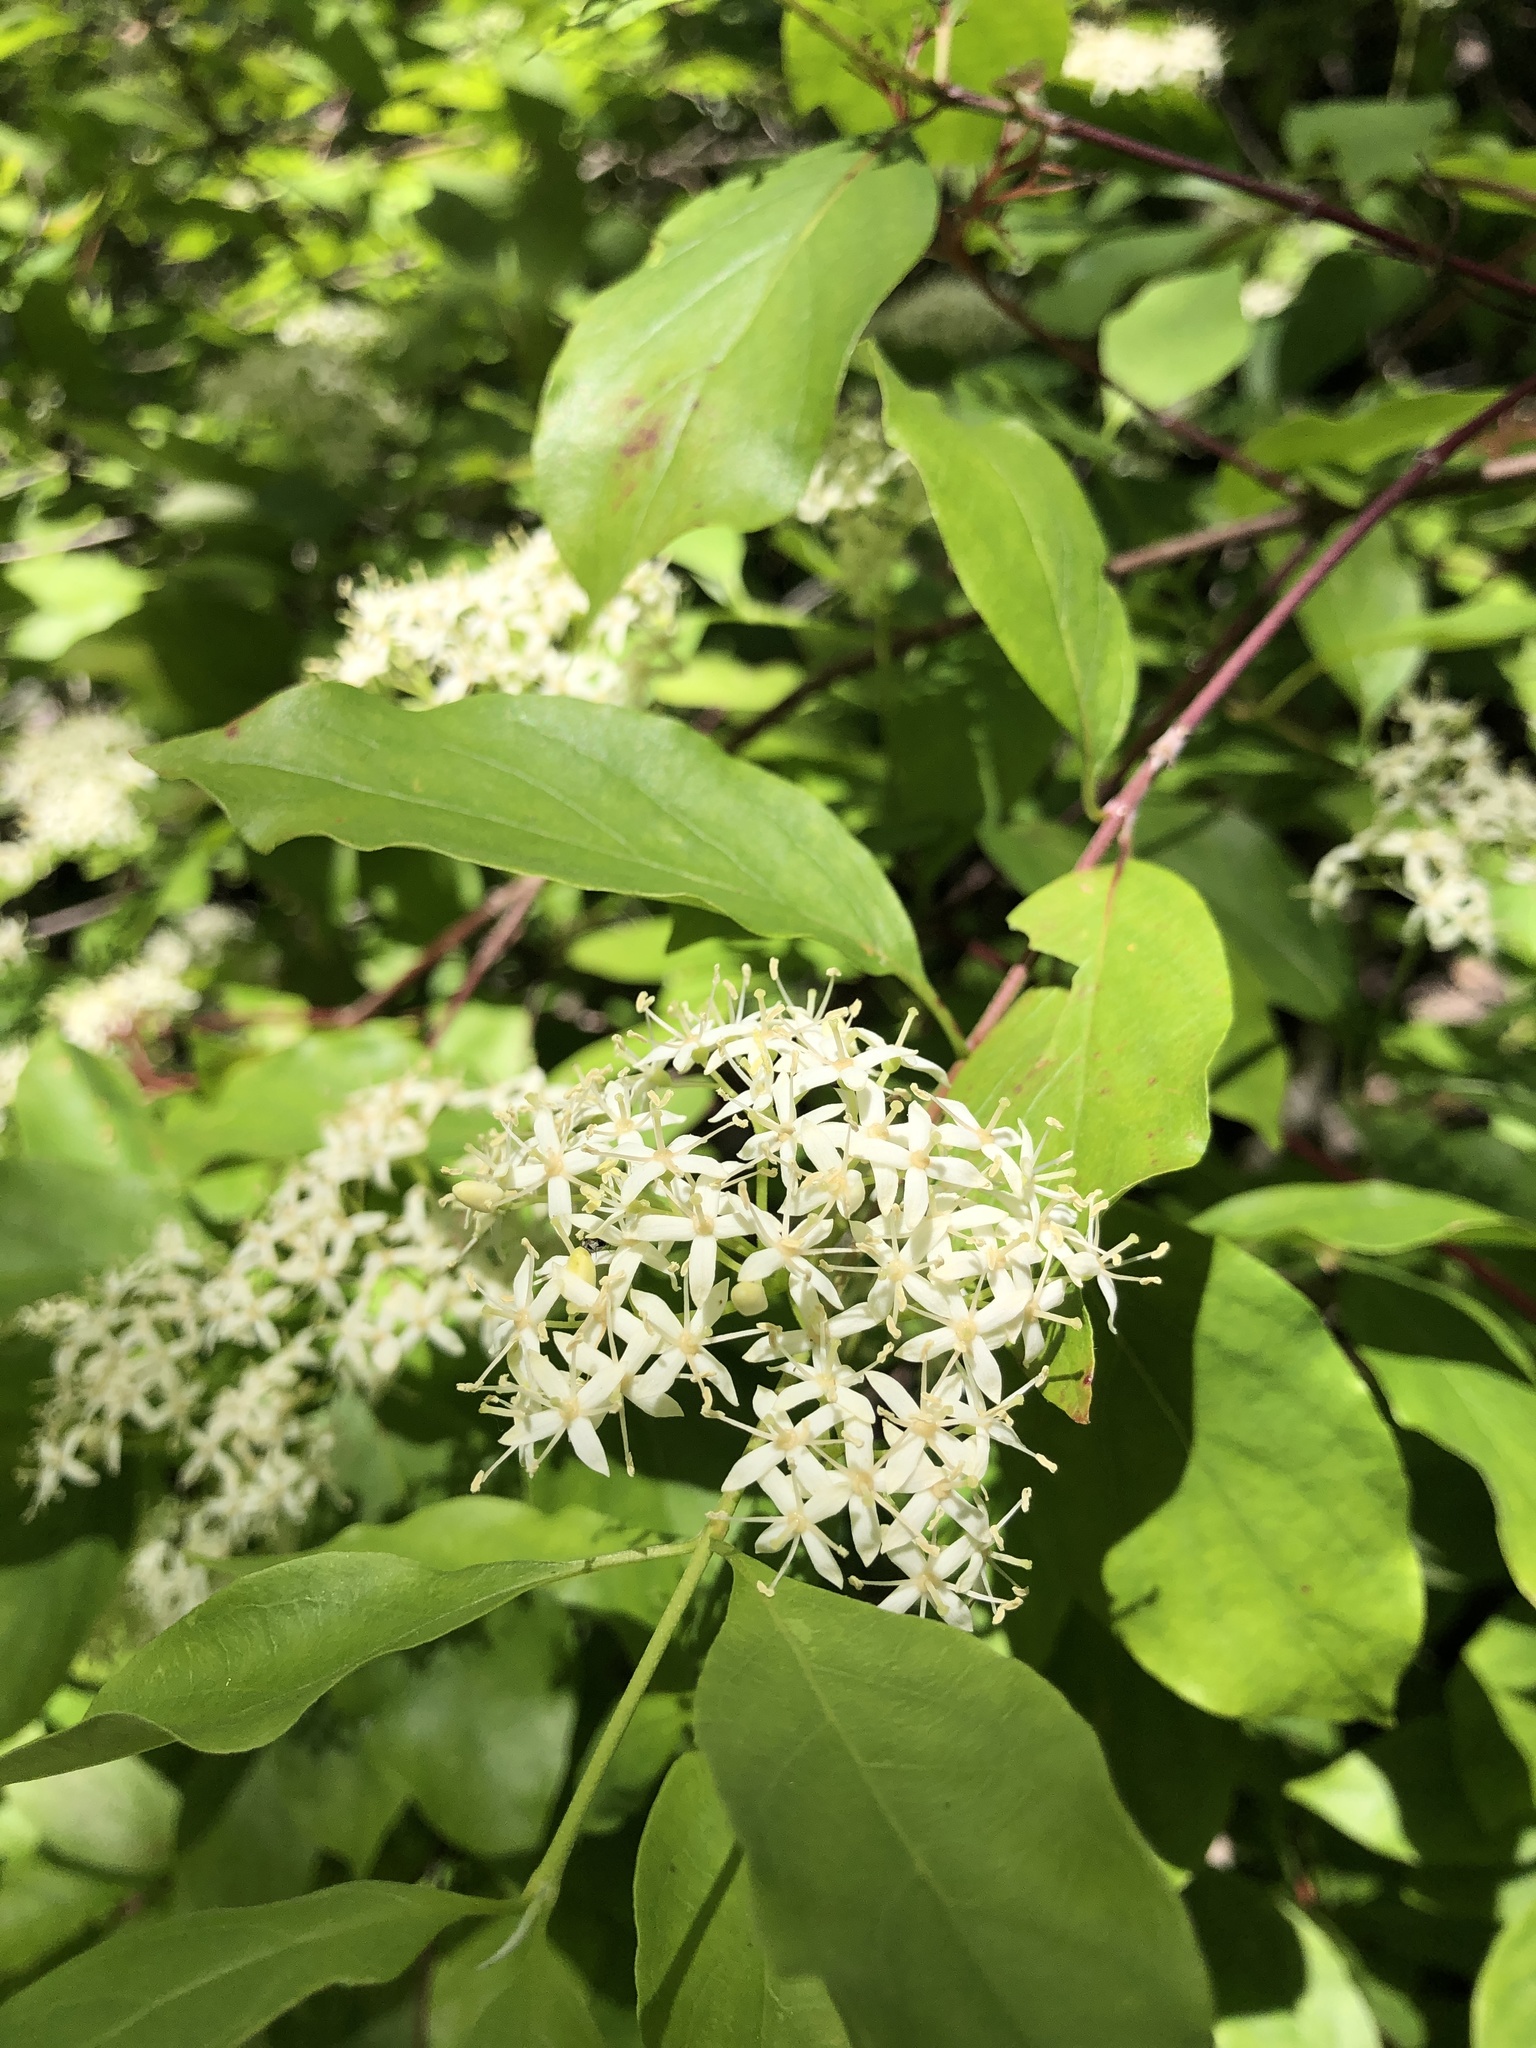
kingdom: Plantae
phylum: Tracheophyta
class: Magnoliopsida
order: Cornales
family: Cornaceae
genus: Cornus
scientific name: Cornus glabrata
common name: Smooth dogwood
